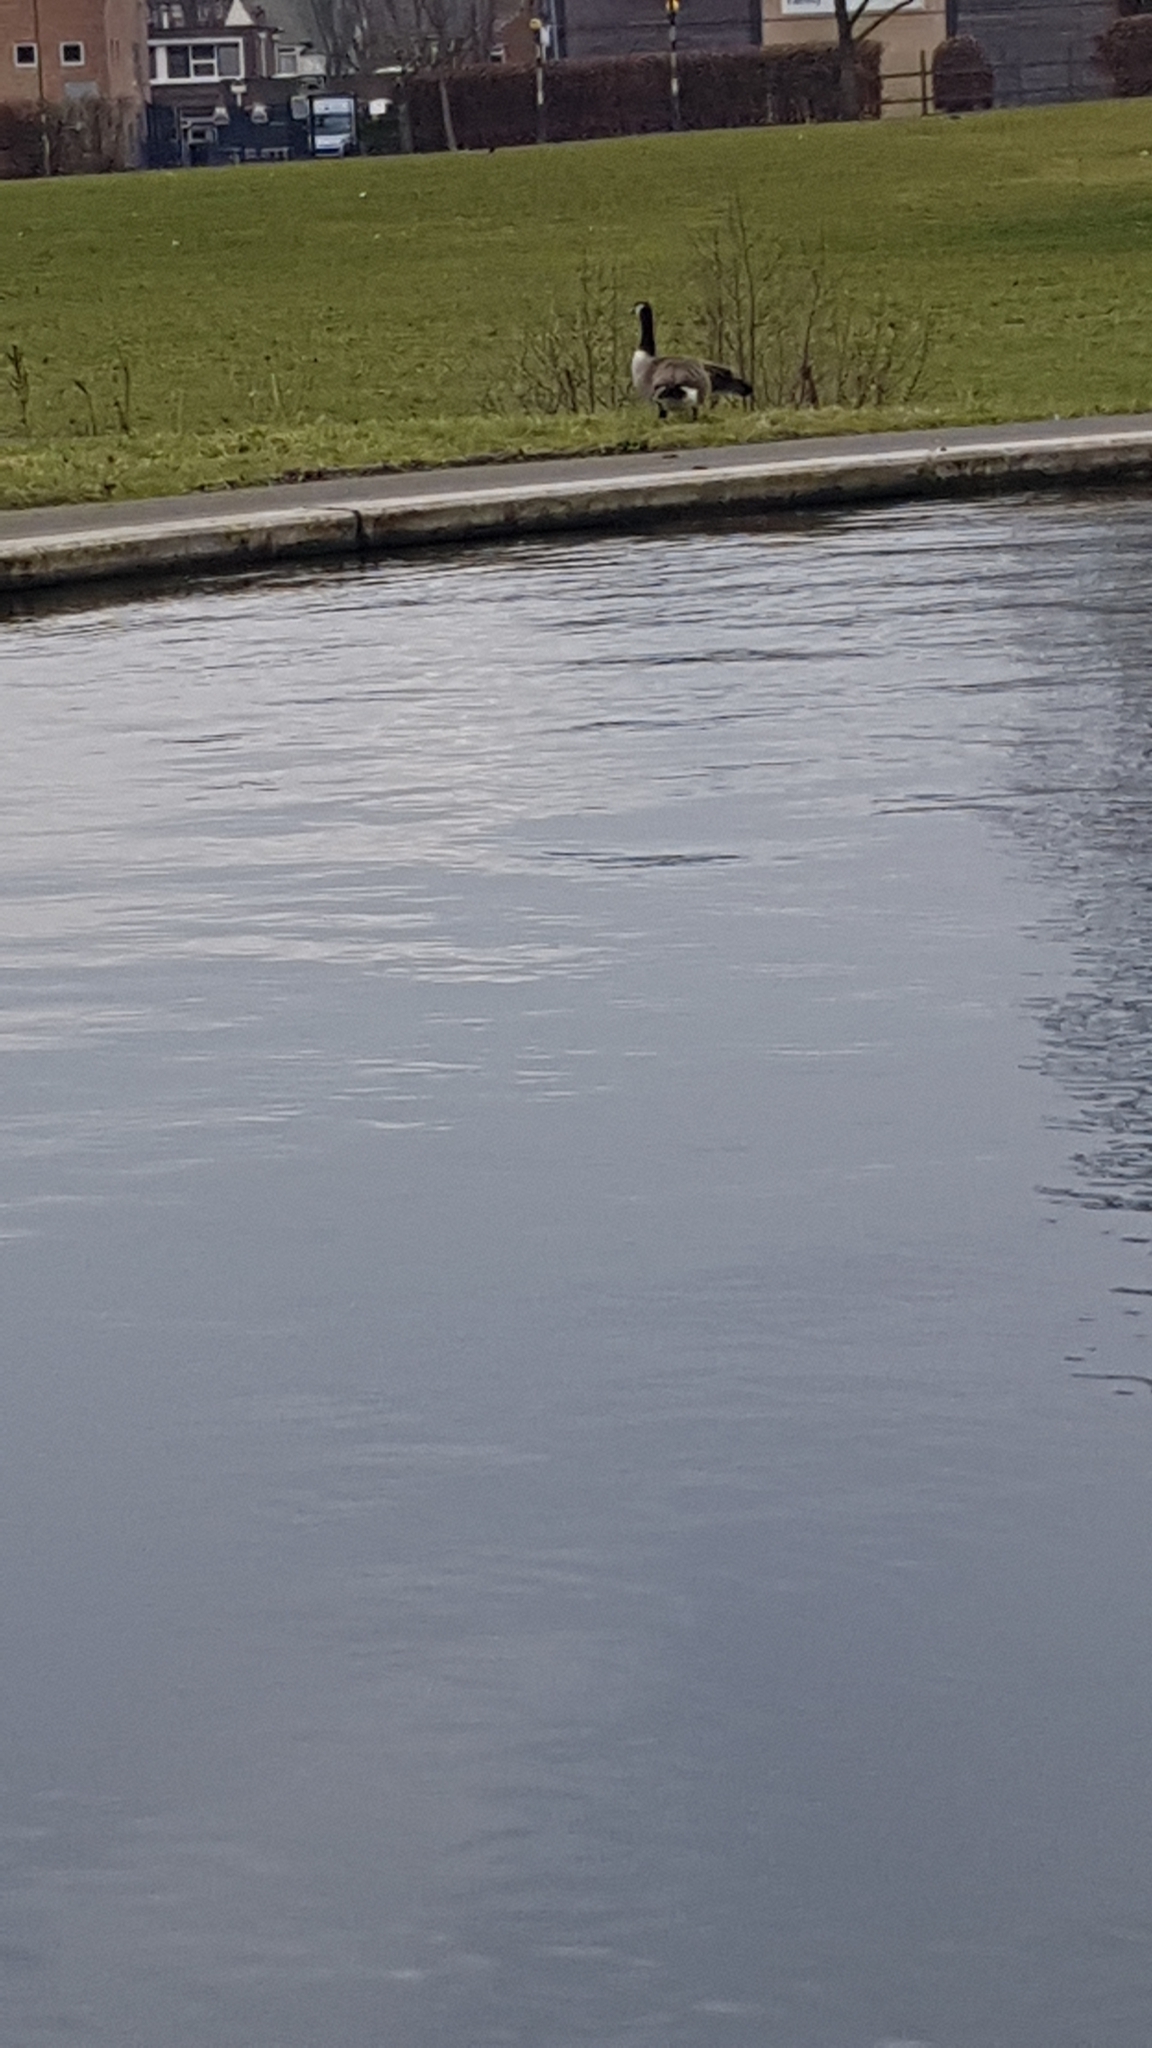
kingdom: Animalia
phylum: Chordata
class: Aves
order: Anseriformes
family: Anatidae
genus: Branta
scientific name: Branta canadensis
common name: Canada goose
